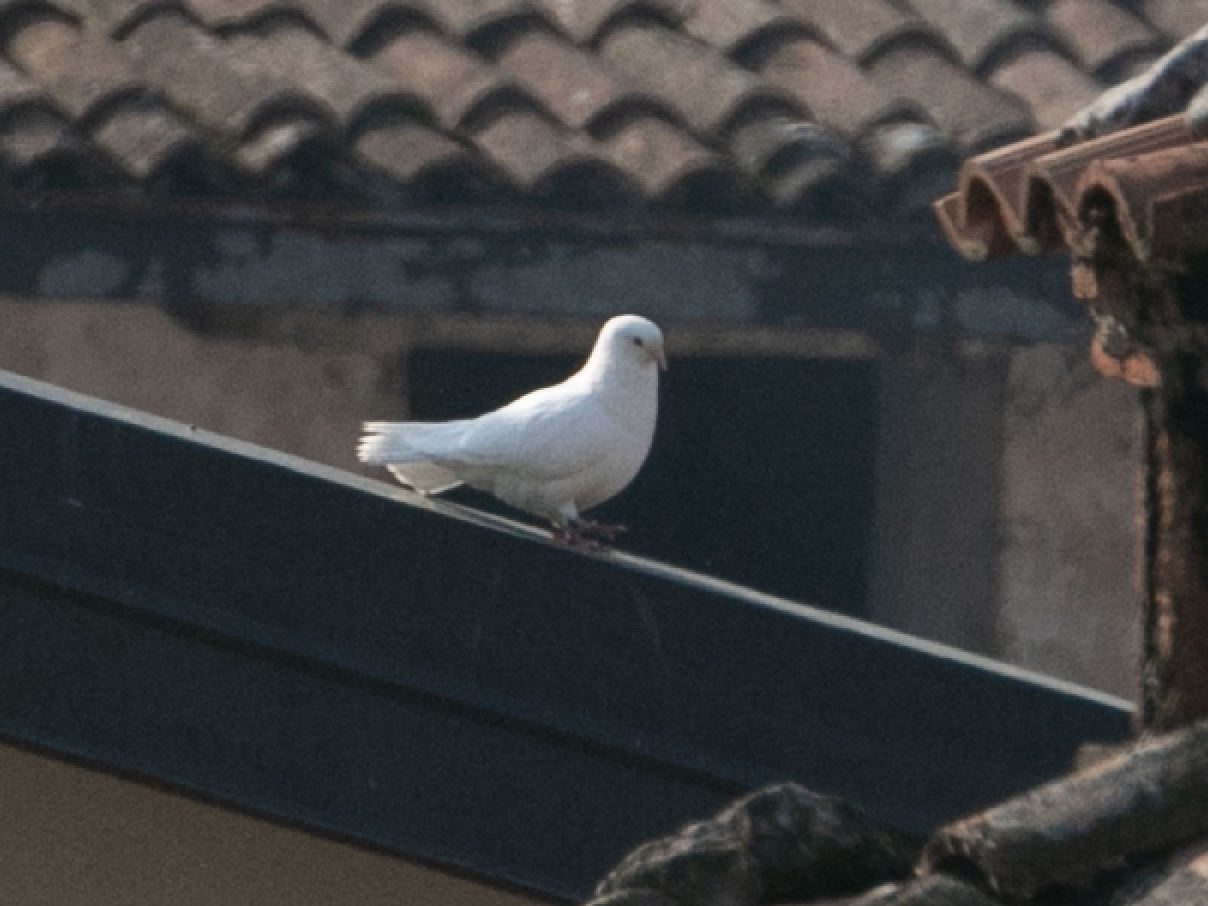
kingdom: Animalia
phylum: Chordata
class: Aves
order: Columbiformes
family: Columbidae
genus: Columba
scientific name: Columba livia
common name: Rock pigeon
